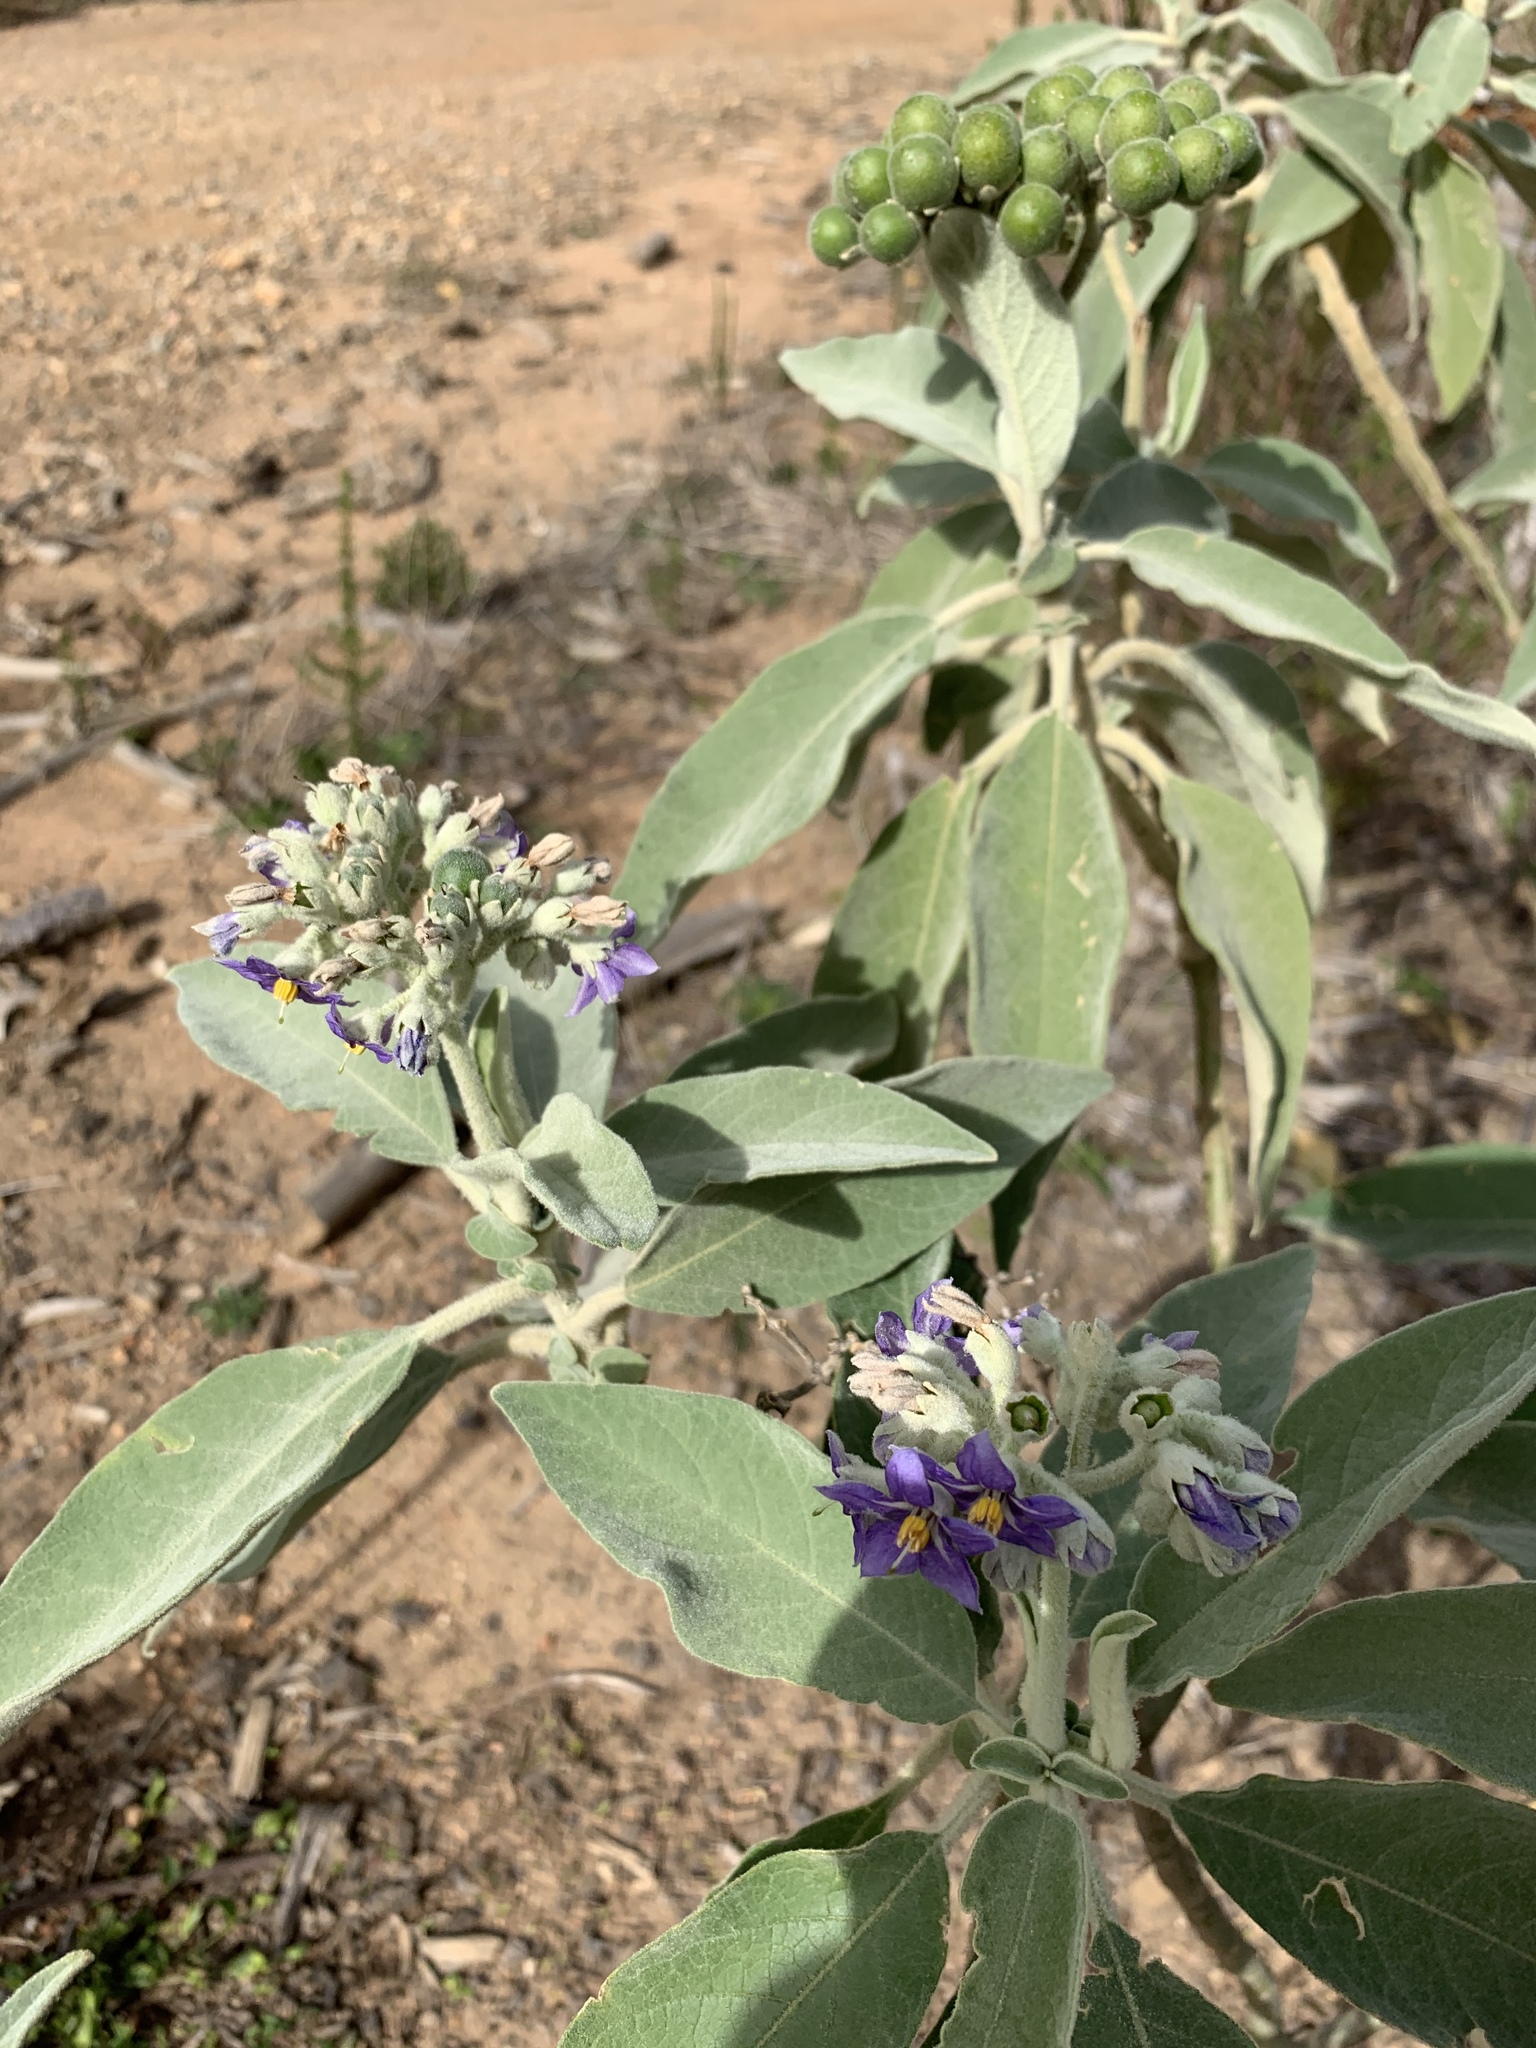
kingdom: Plantae
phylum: Tracheophyta
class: Magnoliopsida
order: Solanales
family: Solanaceae
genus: Solanum
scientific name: Solanum mauritianum
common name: Earleaf nightshade
